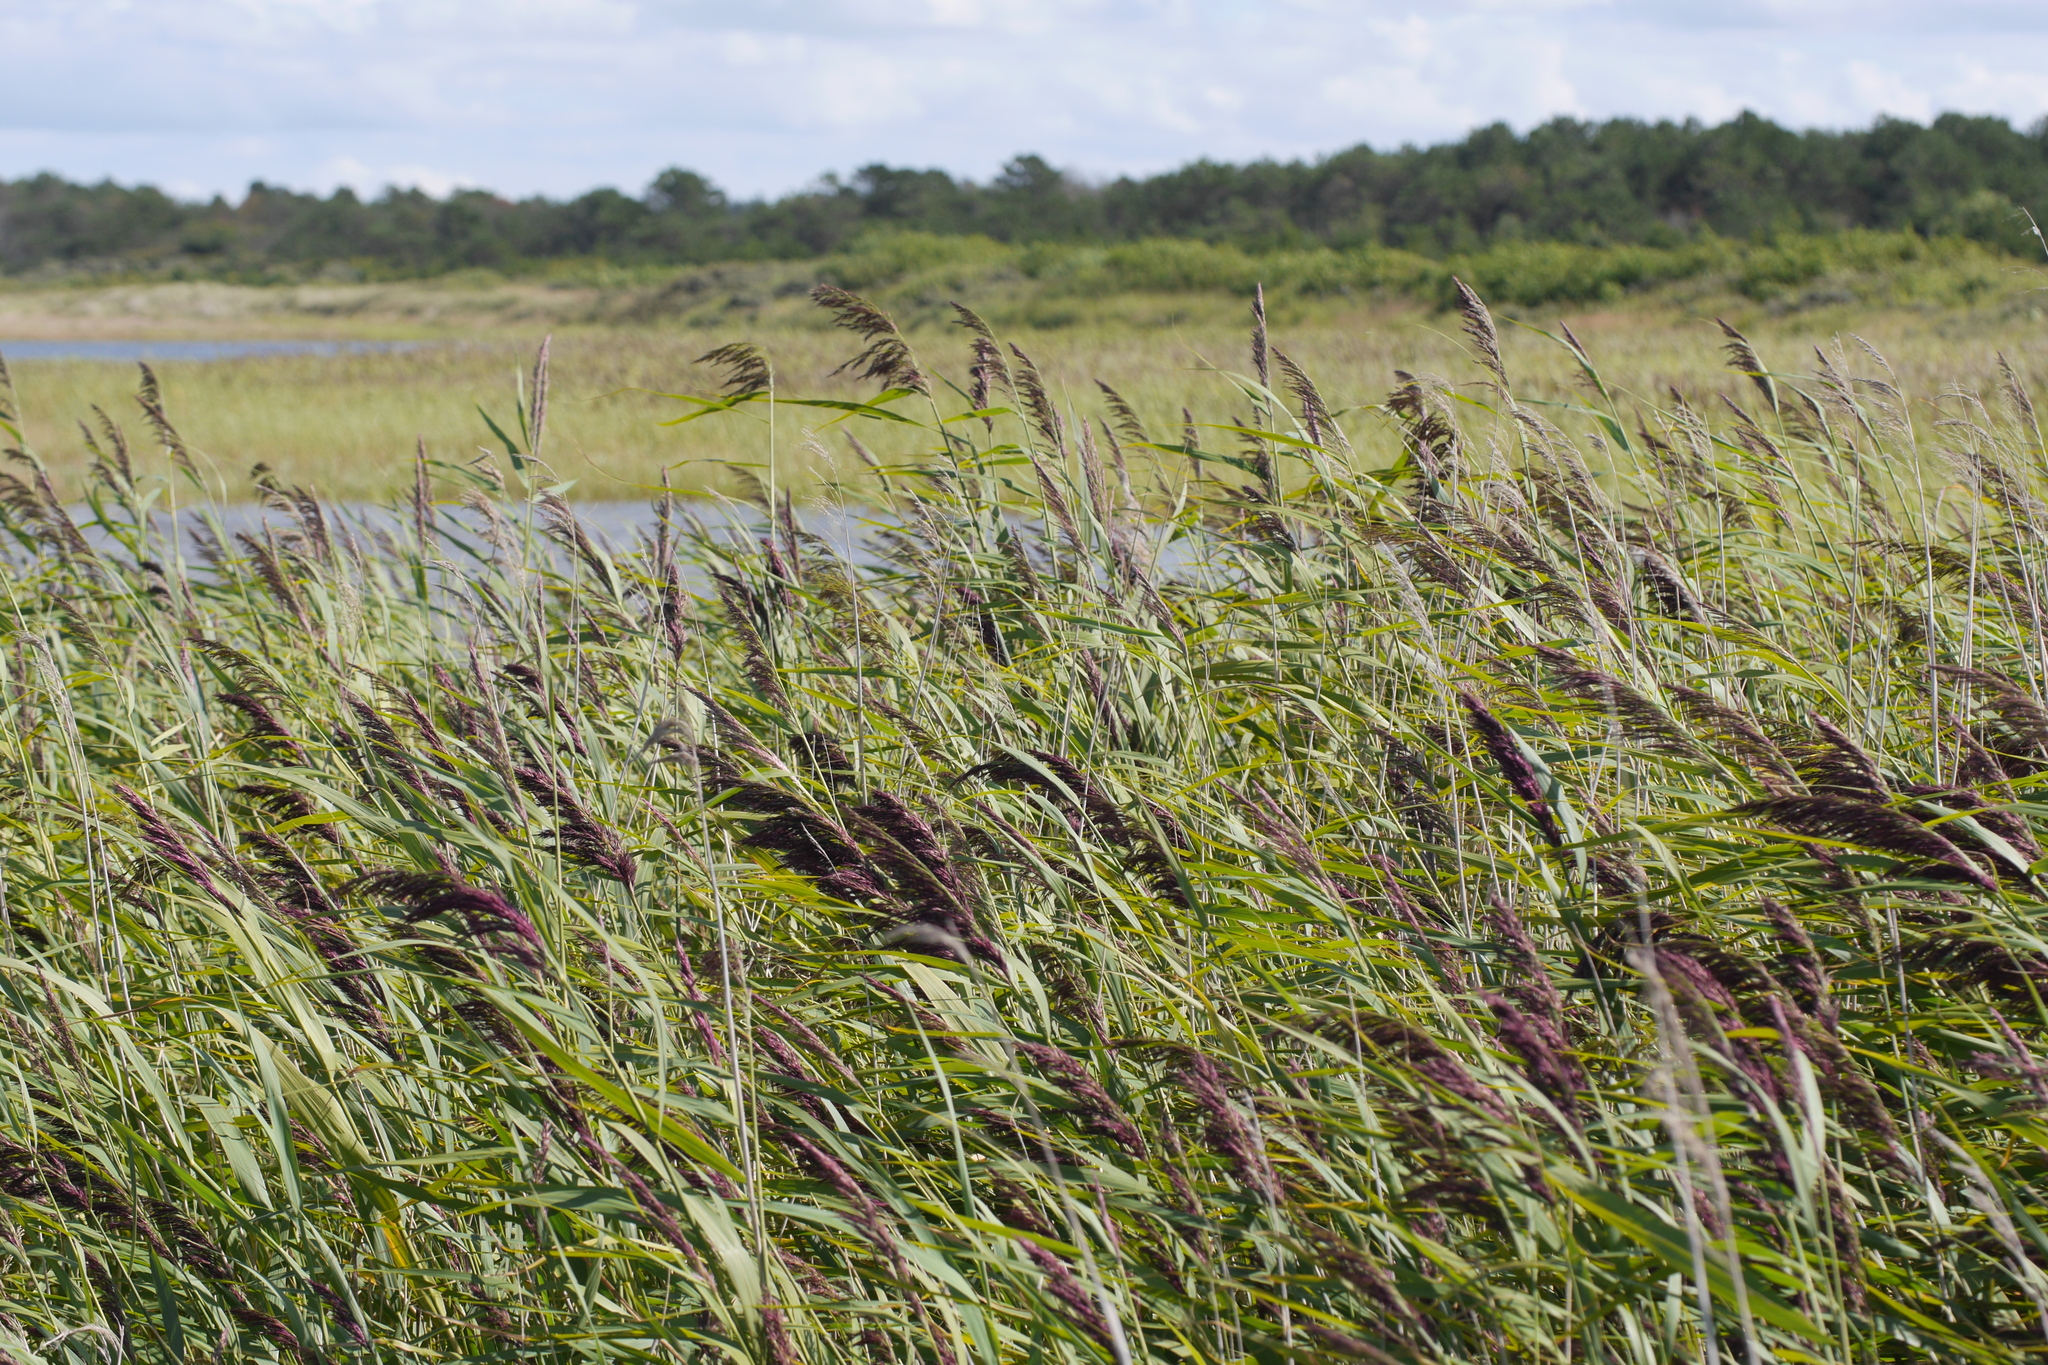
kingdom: Plantae
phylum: Tracheophyta
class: Liliopsida
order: Poales
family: Poaceae
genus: Phragmites
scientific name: Phragmites australis
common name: Common reed
